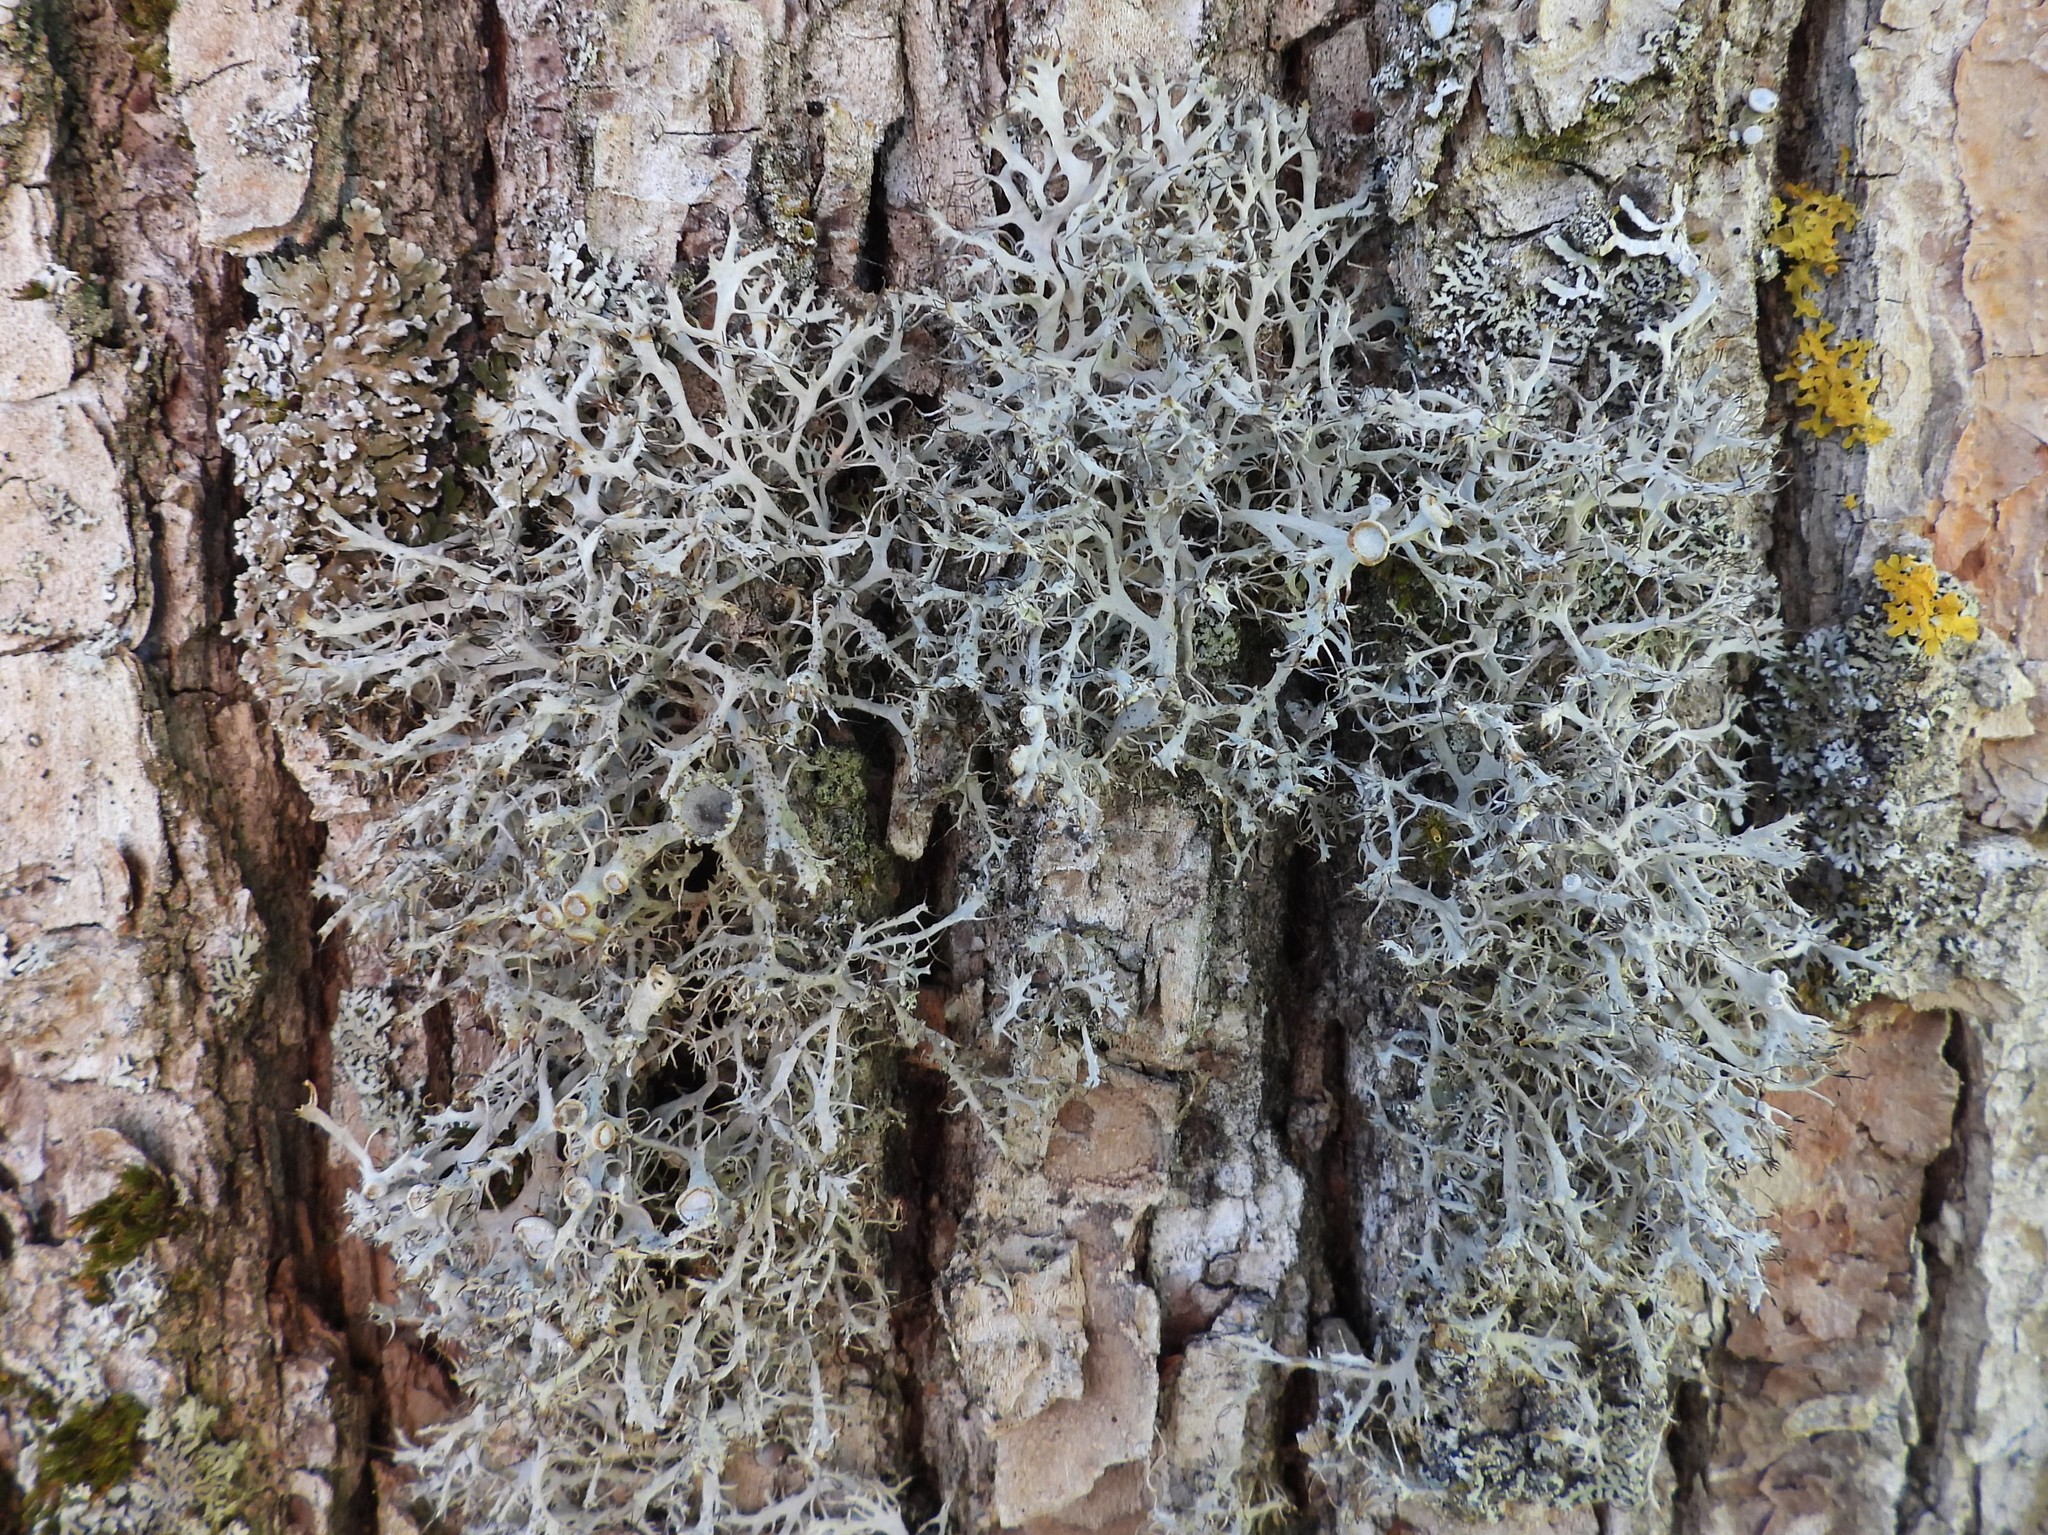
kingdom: Fungi
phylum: Ascomycota
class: Lecanoromycetes
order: Caliciales
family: Physciaceae
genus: Anaptychia
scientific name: Anaptychia ciliaris
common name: Great ciliated lichen
